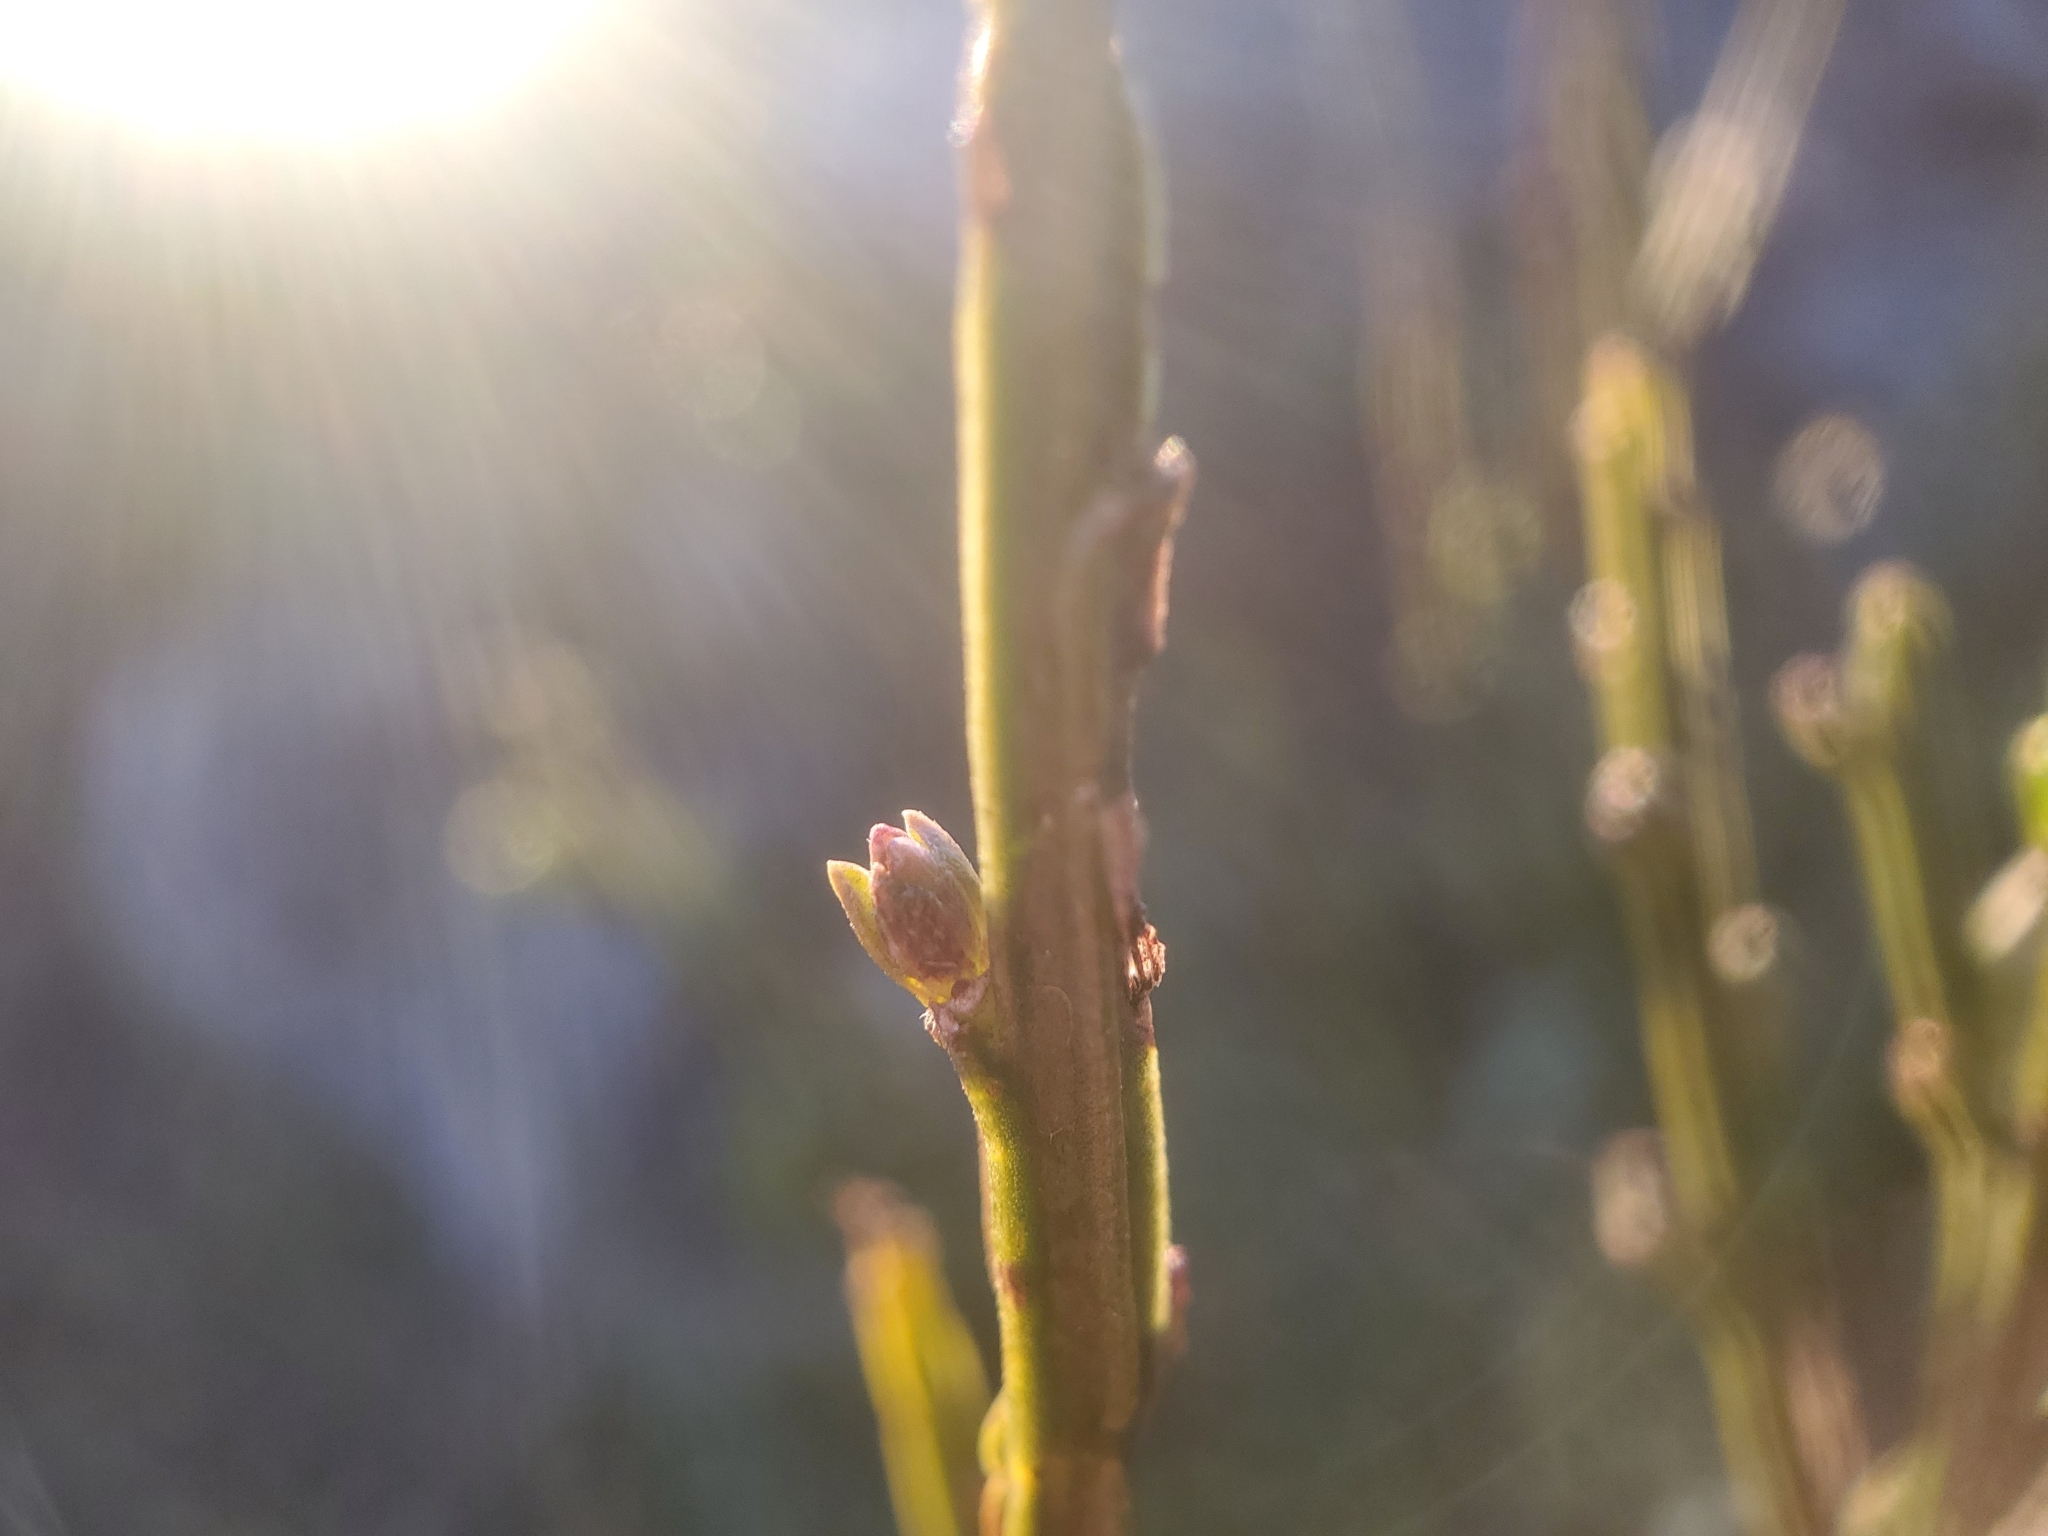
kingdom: Plantae
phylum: Tracheophyta
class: Magnoliopsida
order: Fabales
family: Fabaceae
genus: Cytisus
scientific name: Cytisus scoparius
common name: Scotch broom
